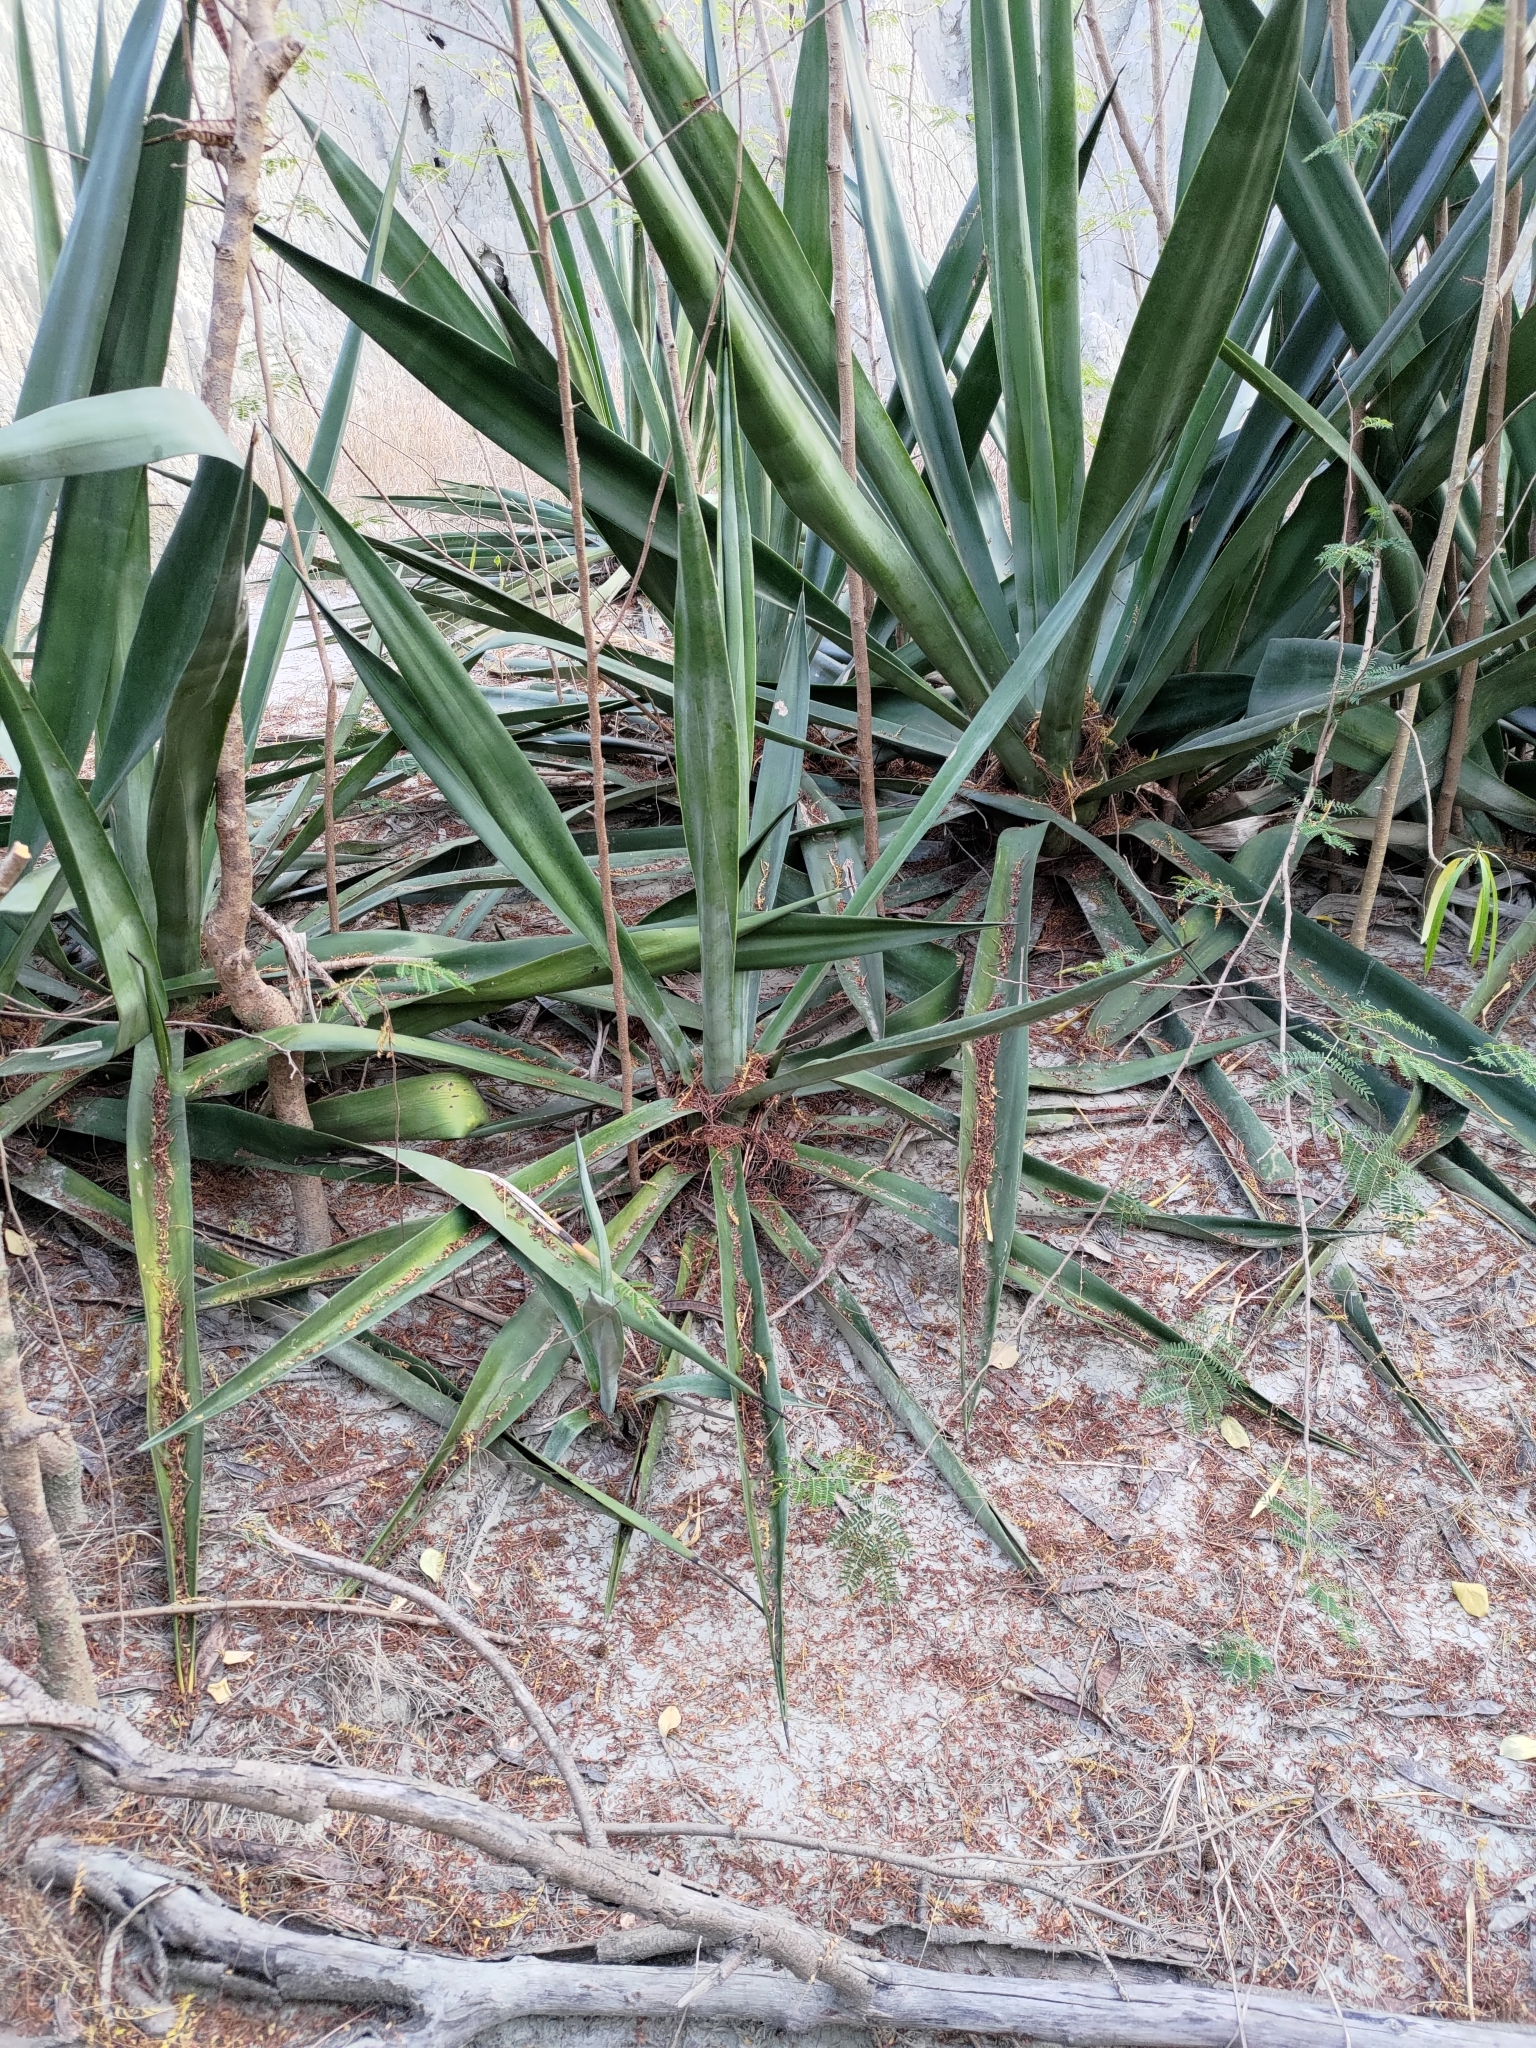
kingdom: Plantae
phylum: Tracheophyta
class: Liliopsida
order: Asparagales
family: Asparagaceae
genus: Agave
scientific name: Agave sisalana
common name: Sisal hemp
